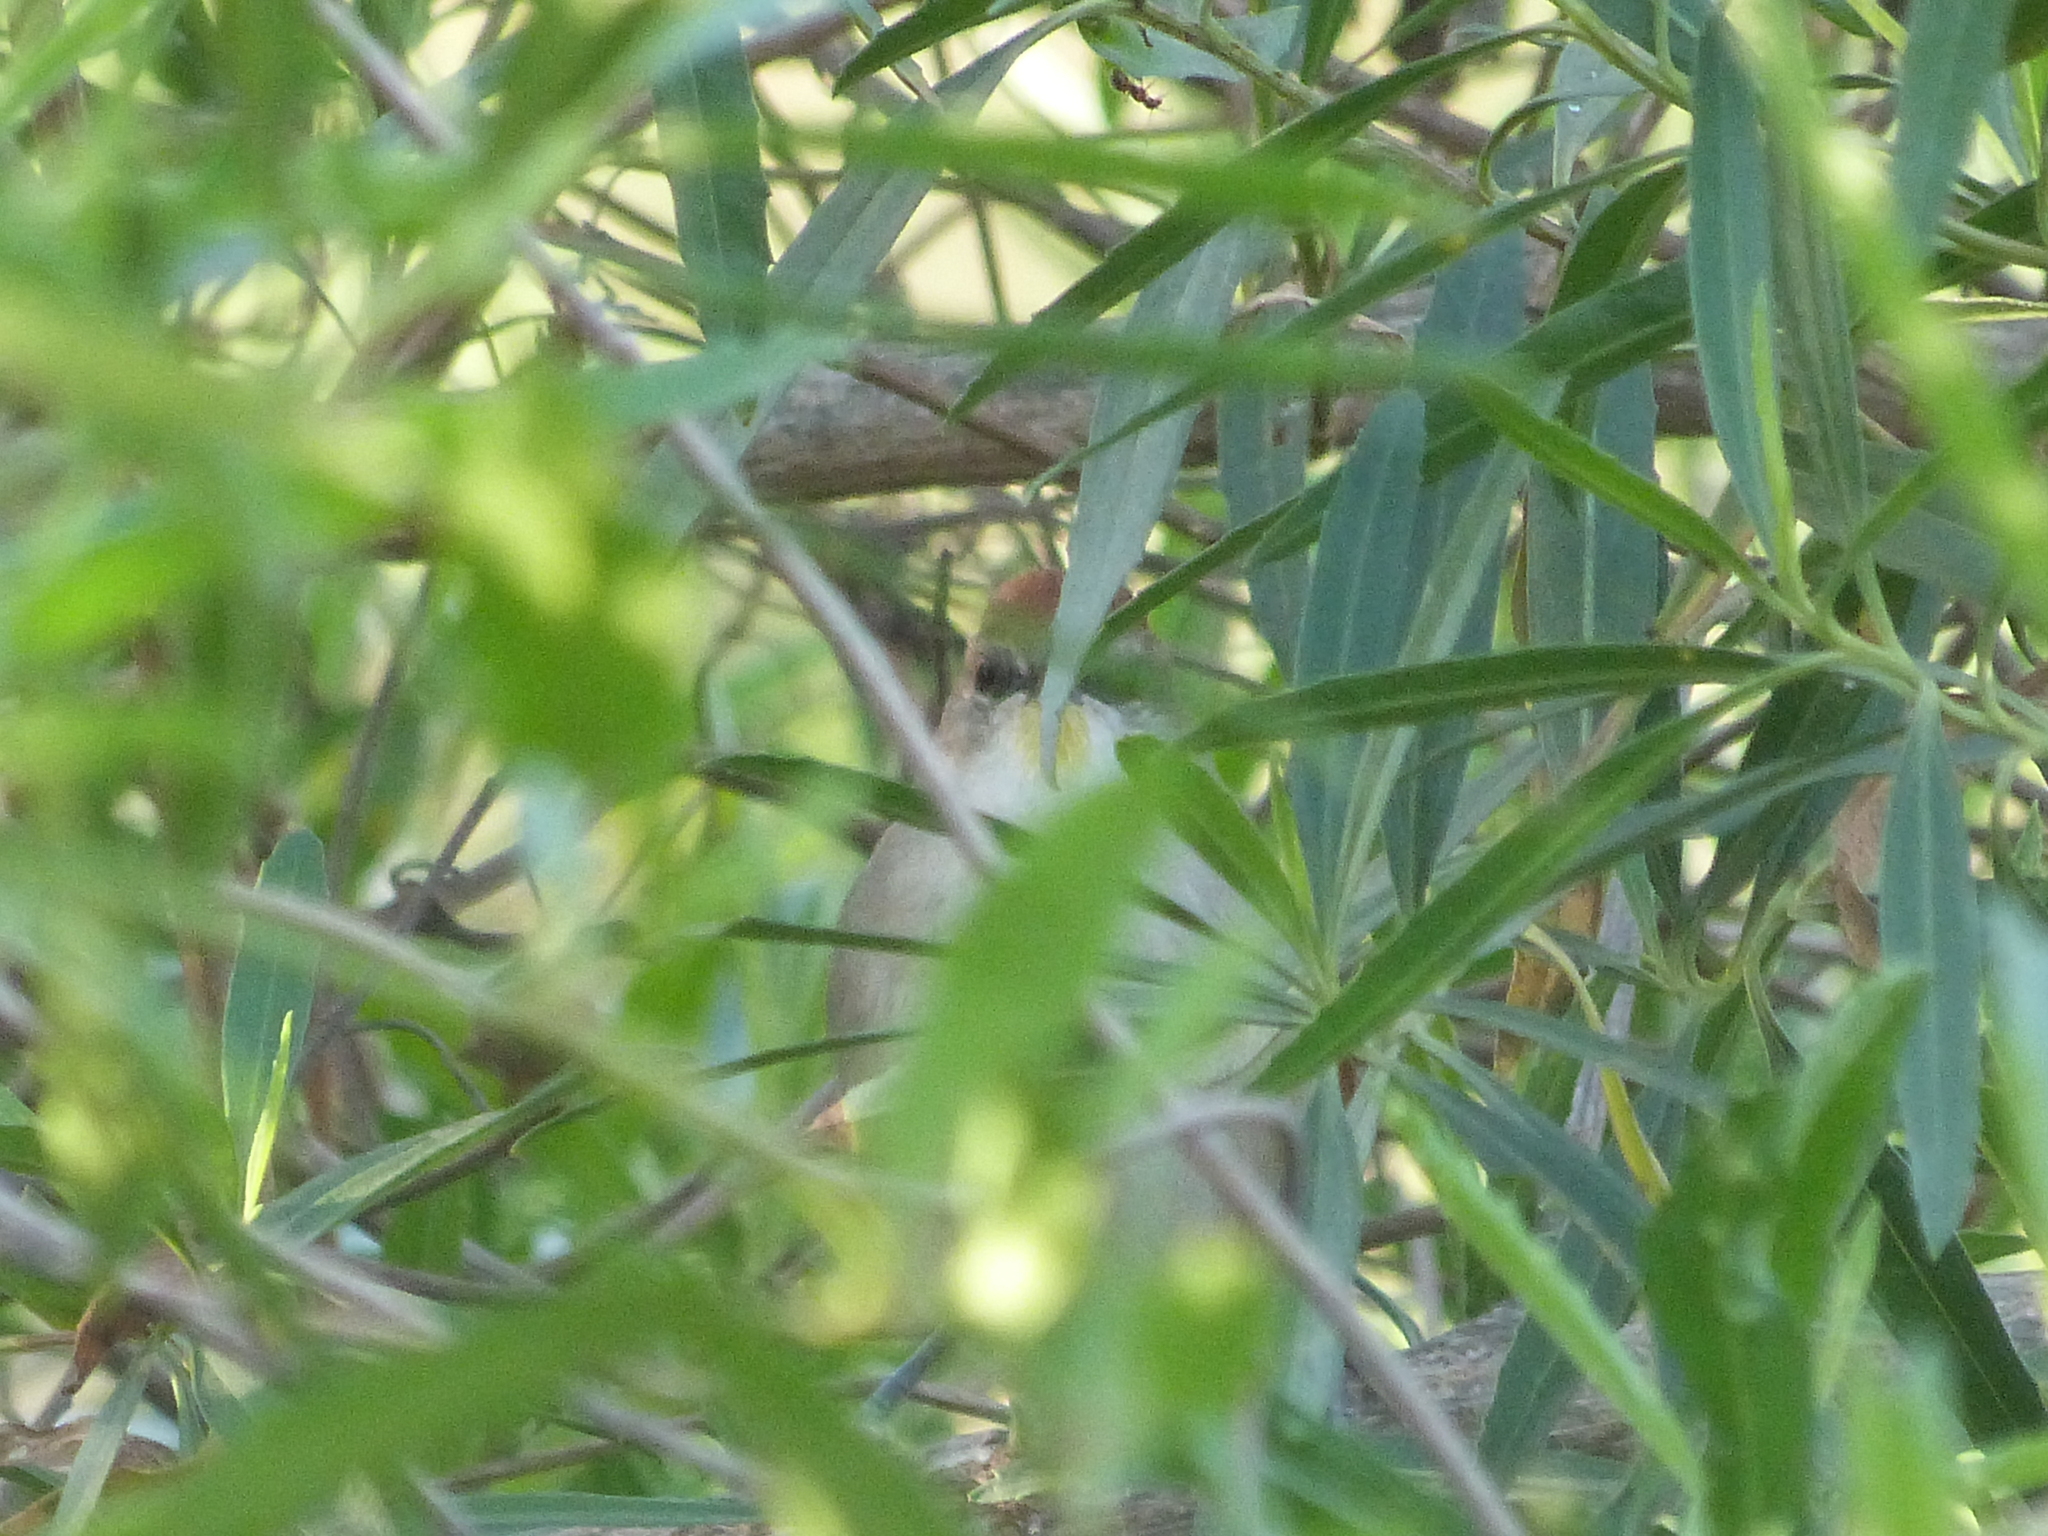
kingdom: Animalia
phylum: Chordata
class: Aves
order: Passeriformes
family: Furnariidae
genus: Certhiaxis
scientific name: Certhiaxis cinnamomeus
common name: Yellow-chinned spinetail
